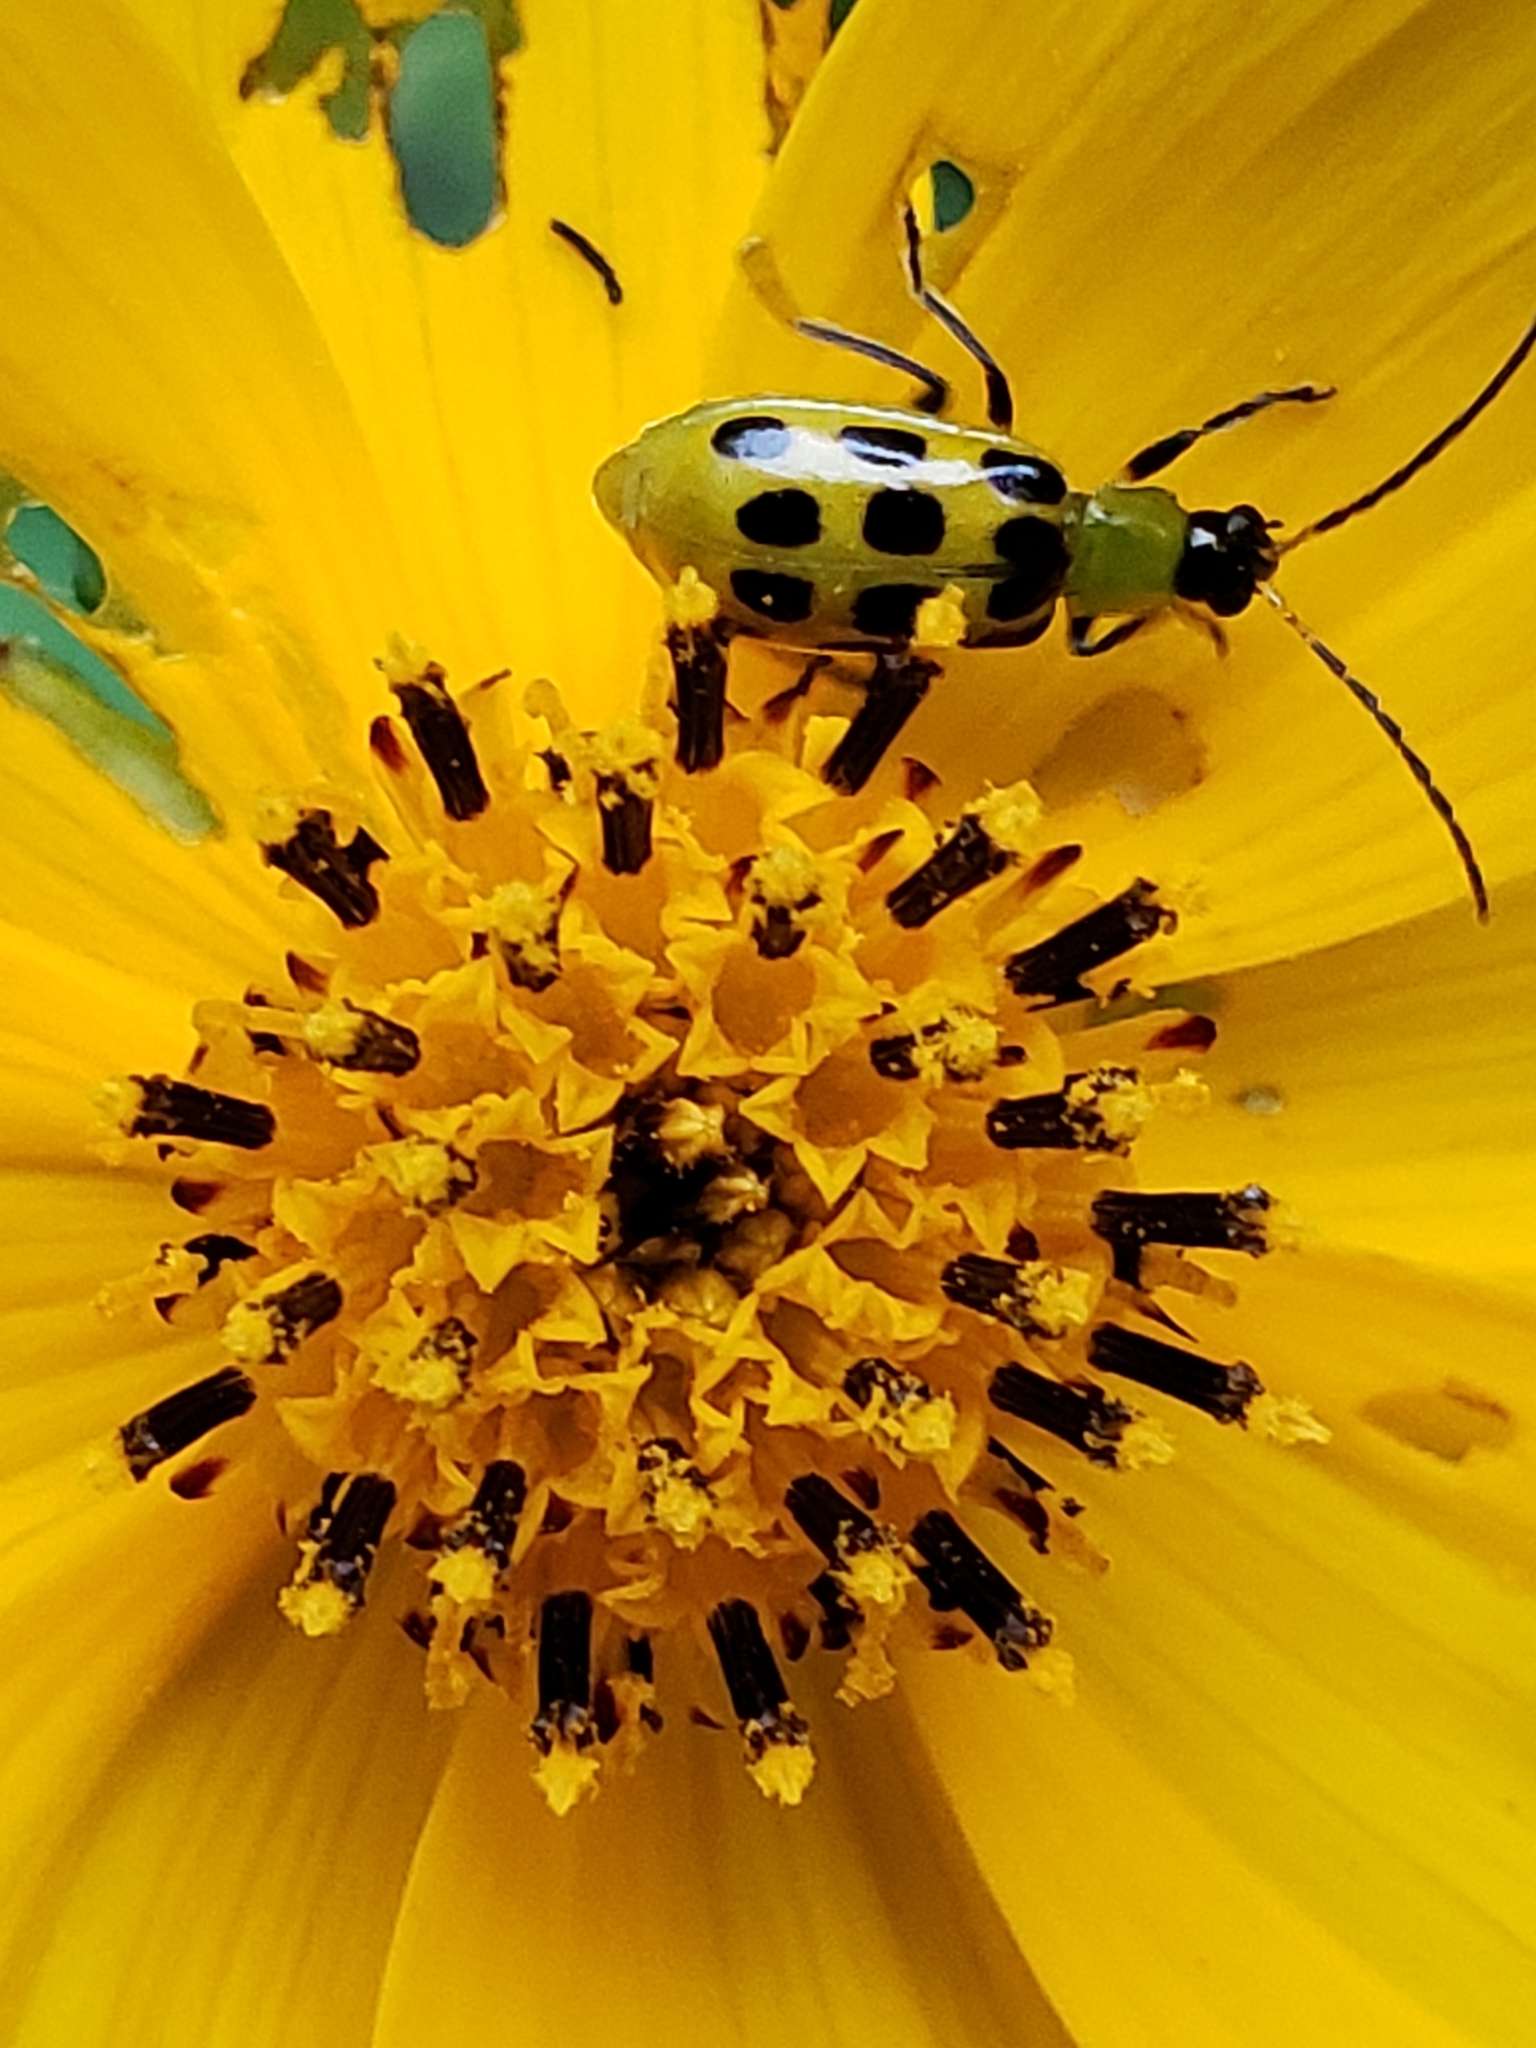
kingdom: Animalia
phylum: Arthropoda
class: Insecta
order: Coleoptera
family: Chrysomelidae
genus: Diabrotica
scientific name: Diabrotica undecimpunctata
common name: Spotted cucumber beetle
